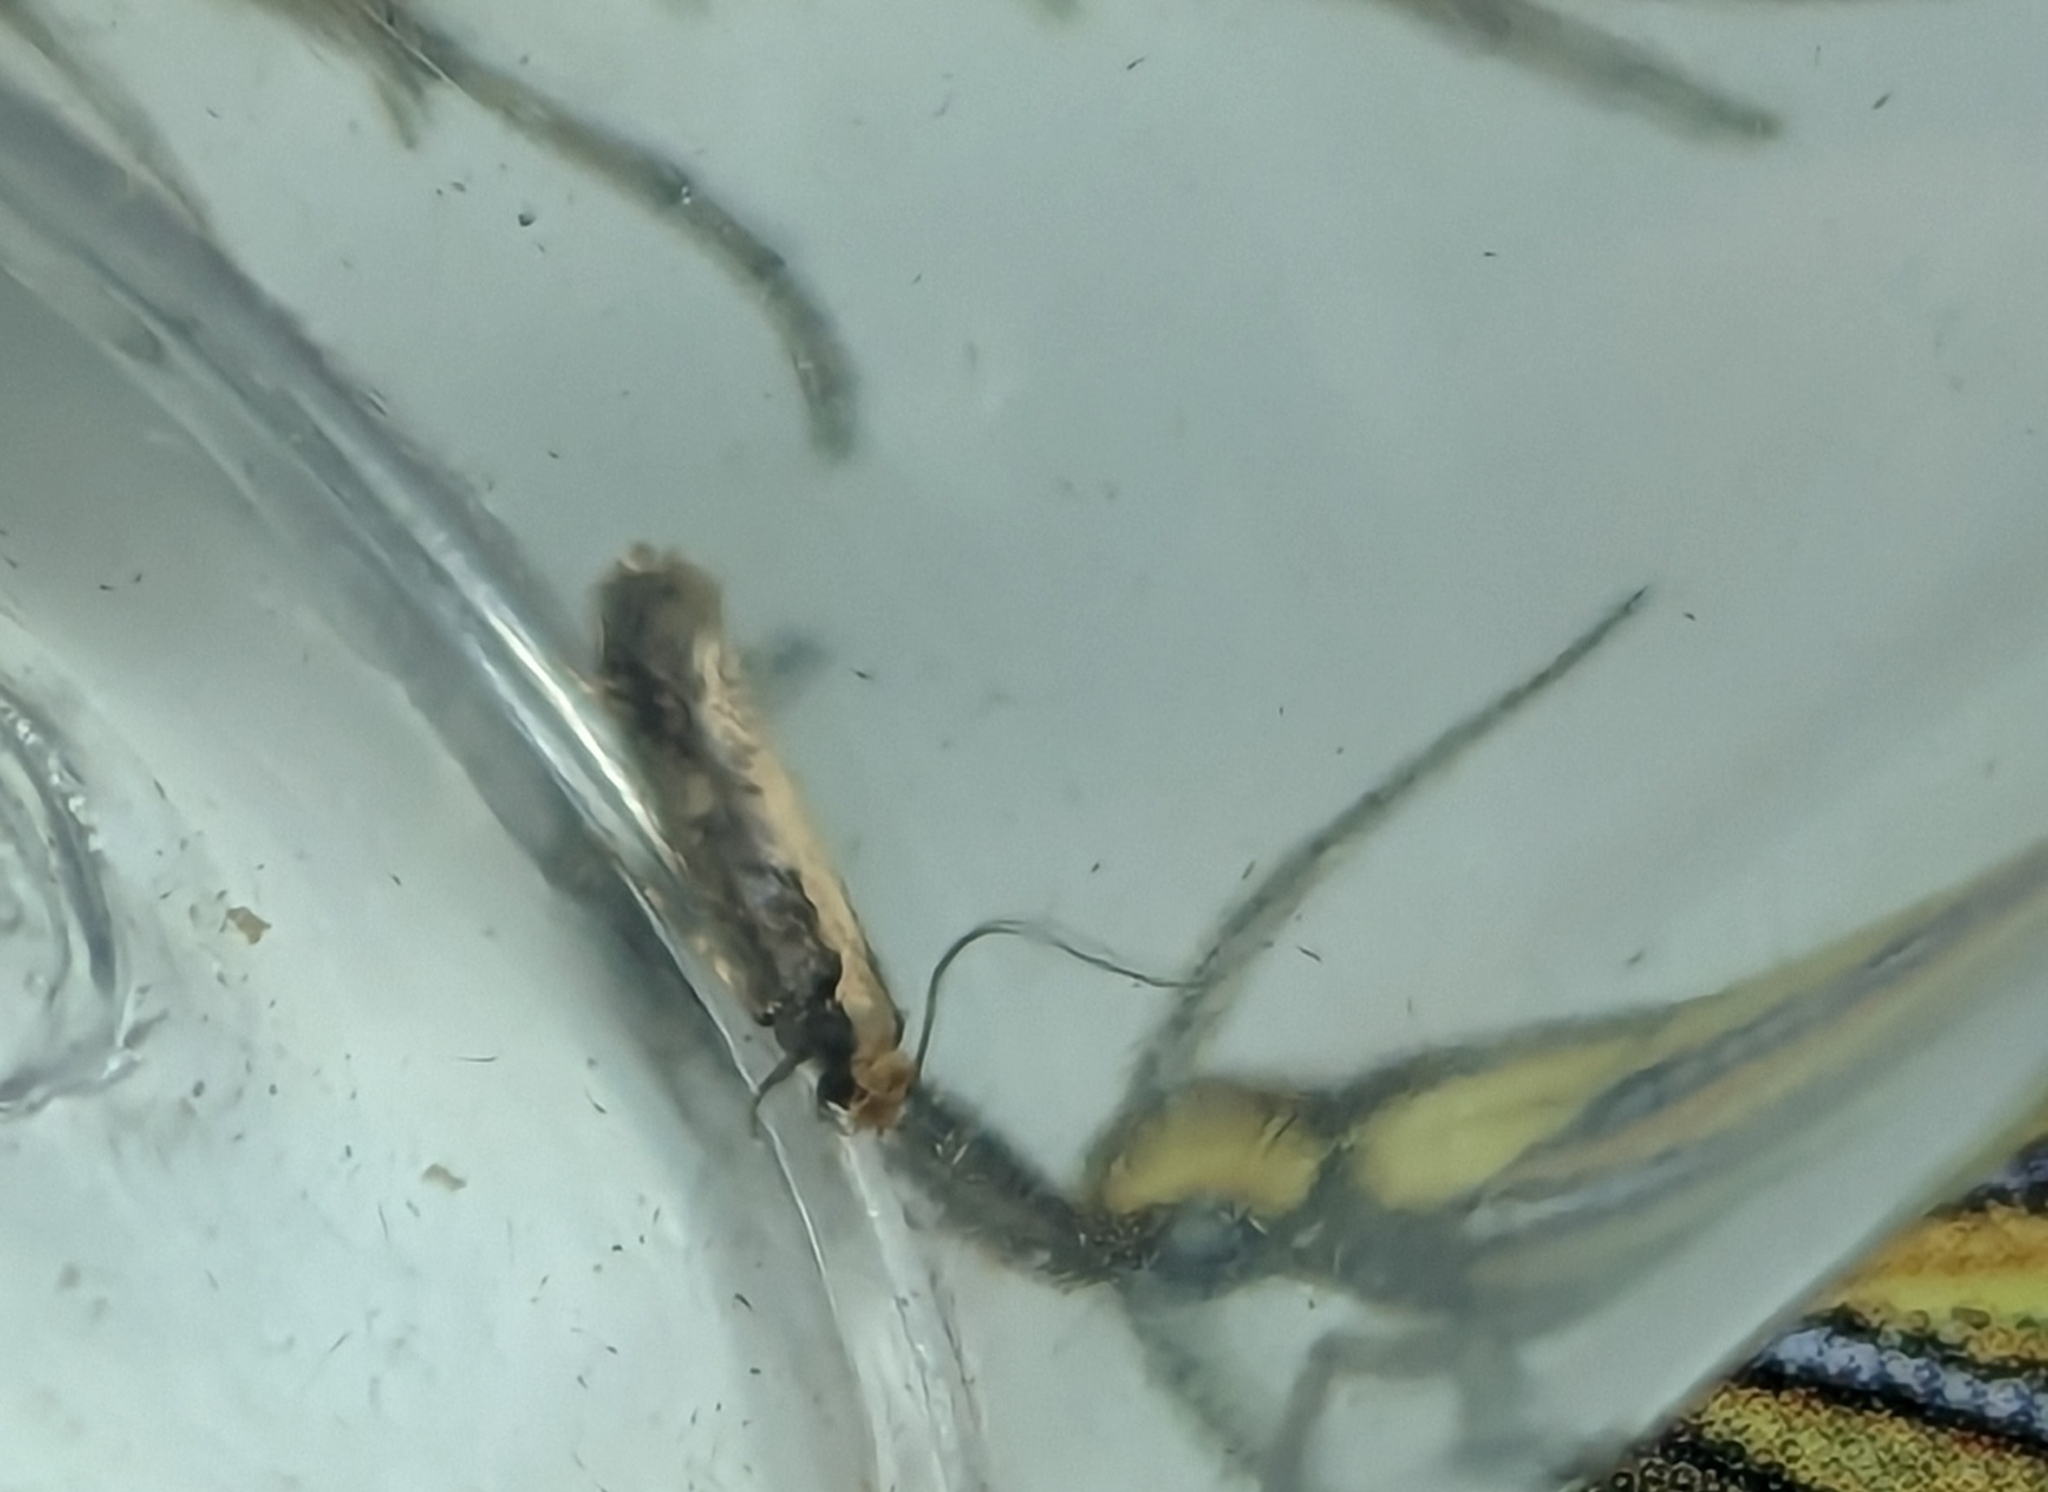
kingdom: Animalia
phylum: Arthropoda
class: Insecta
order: Lepidoptera
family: Tineidae
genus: Monopis
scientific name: Monopis crocicapitella
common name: Moth
